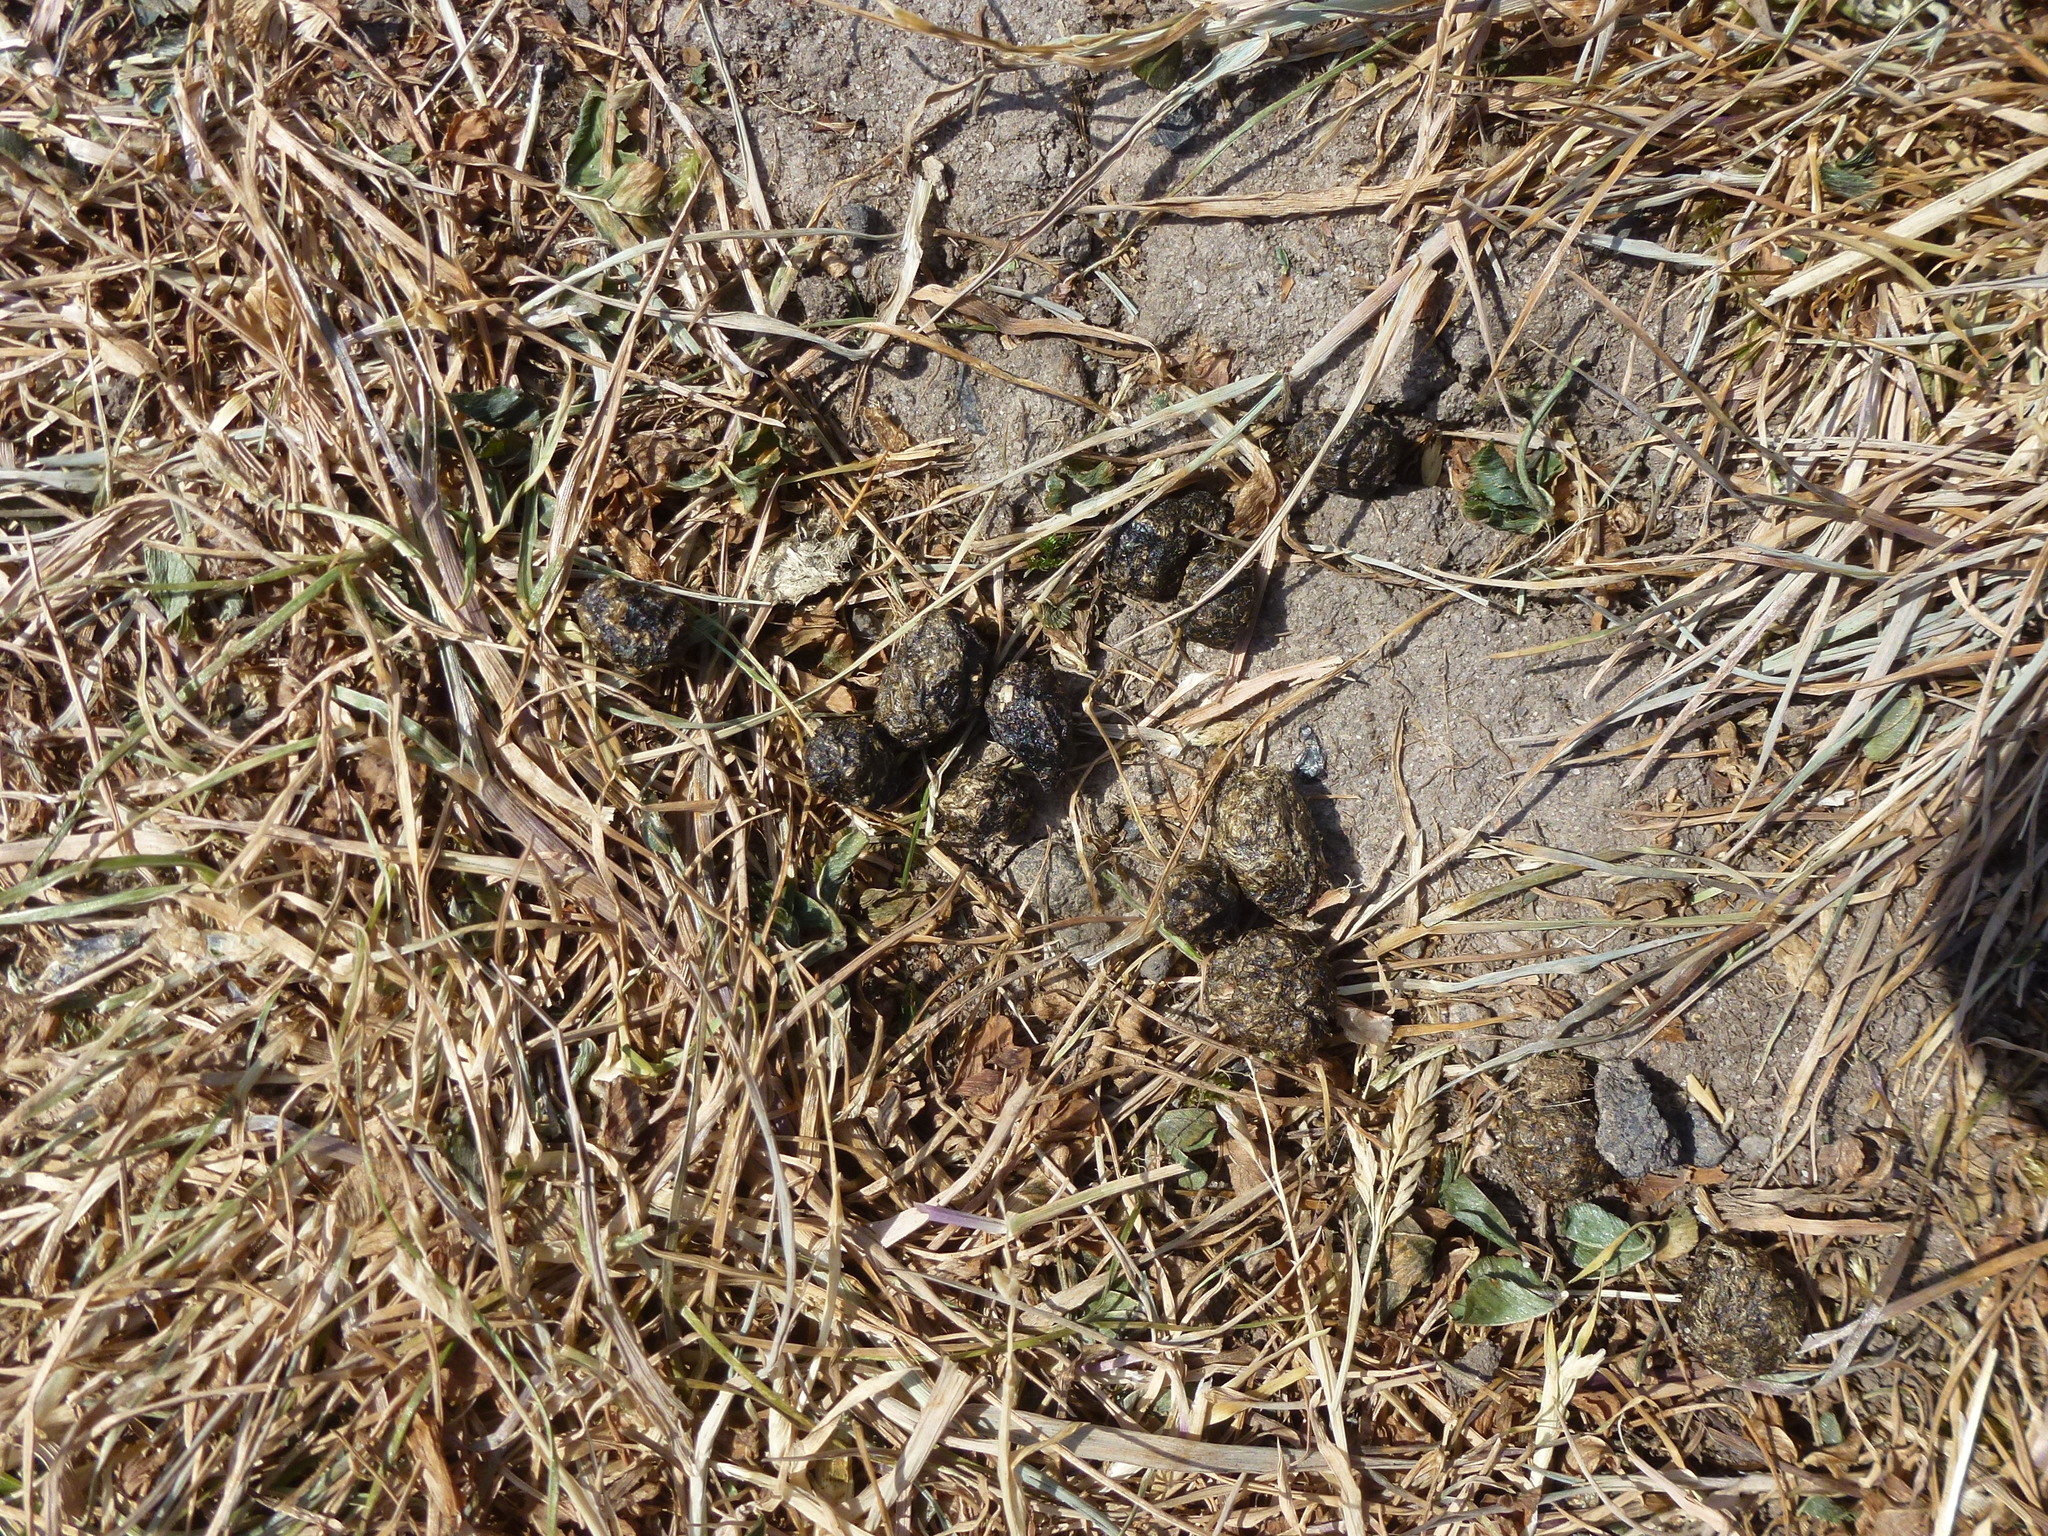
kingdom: Animalia
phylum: Chordata
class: Mammalia
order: Lagomorpha
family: Leporidae
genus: Oryctolagus
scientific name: Oryctolagus cuniculus
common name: European rabbit
